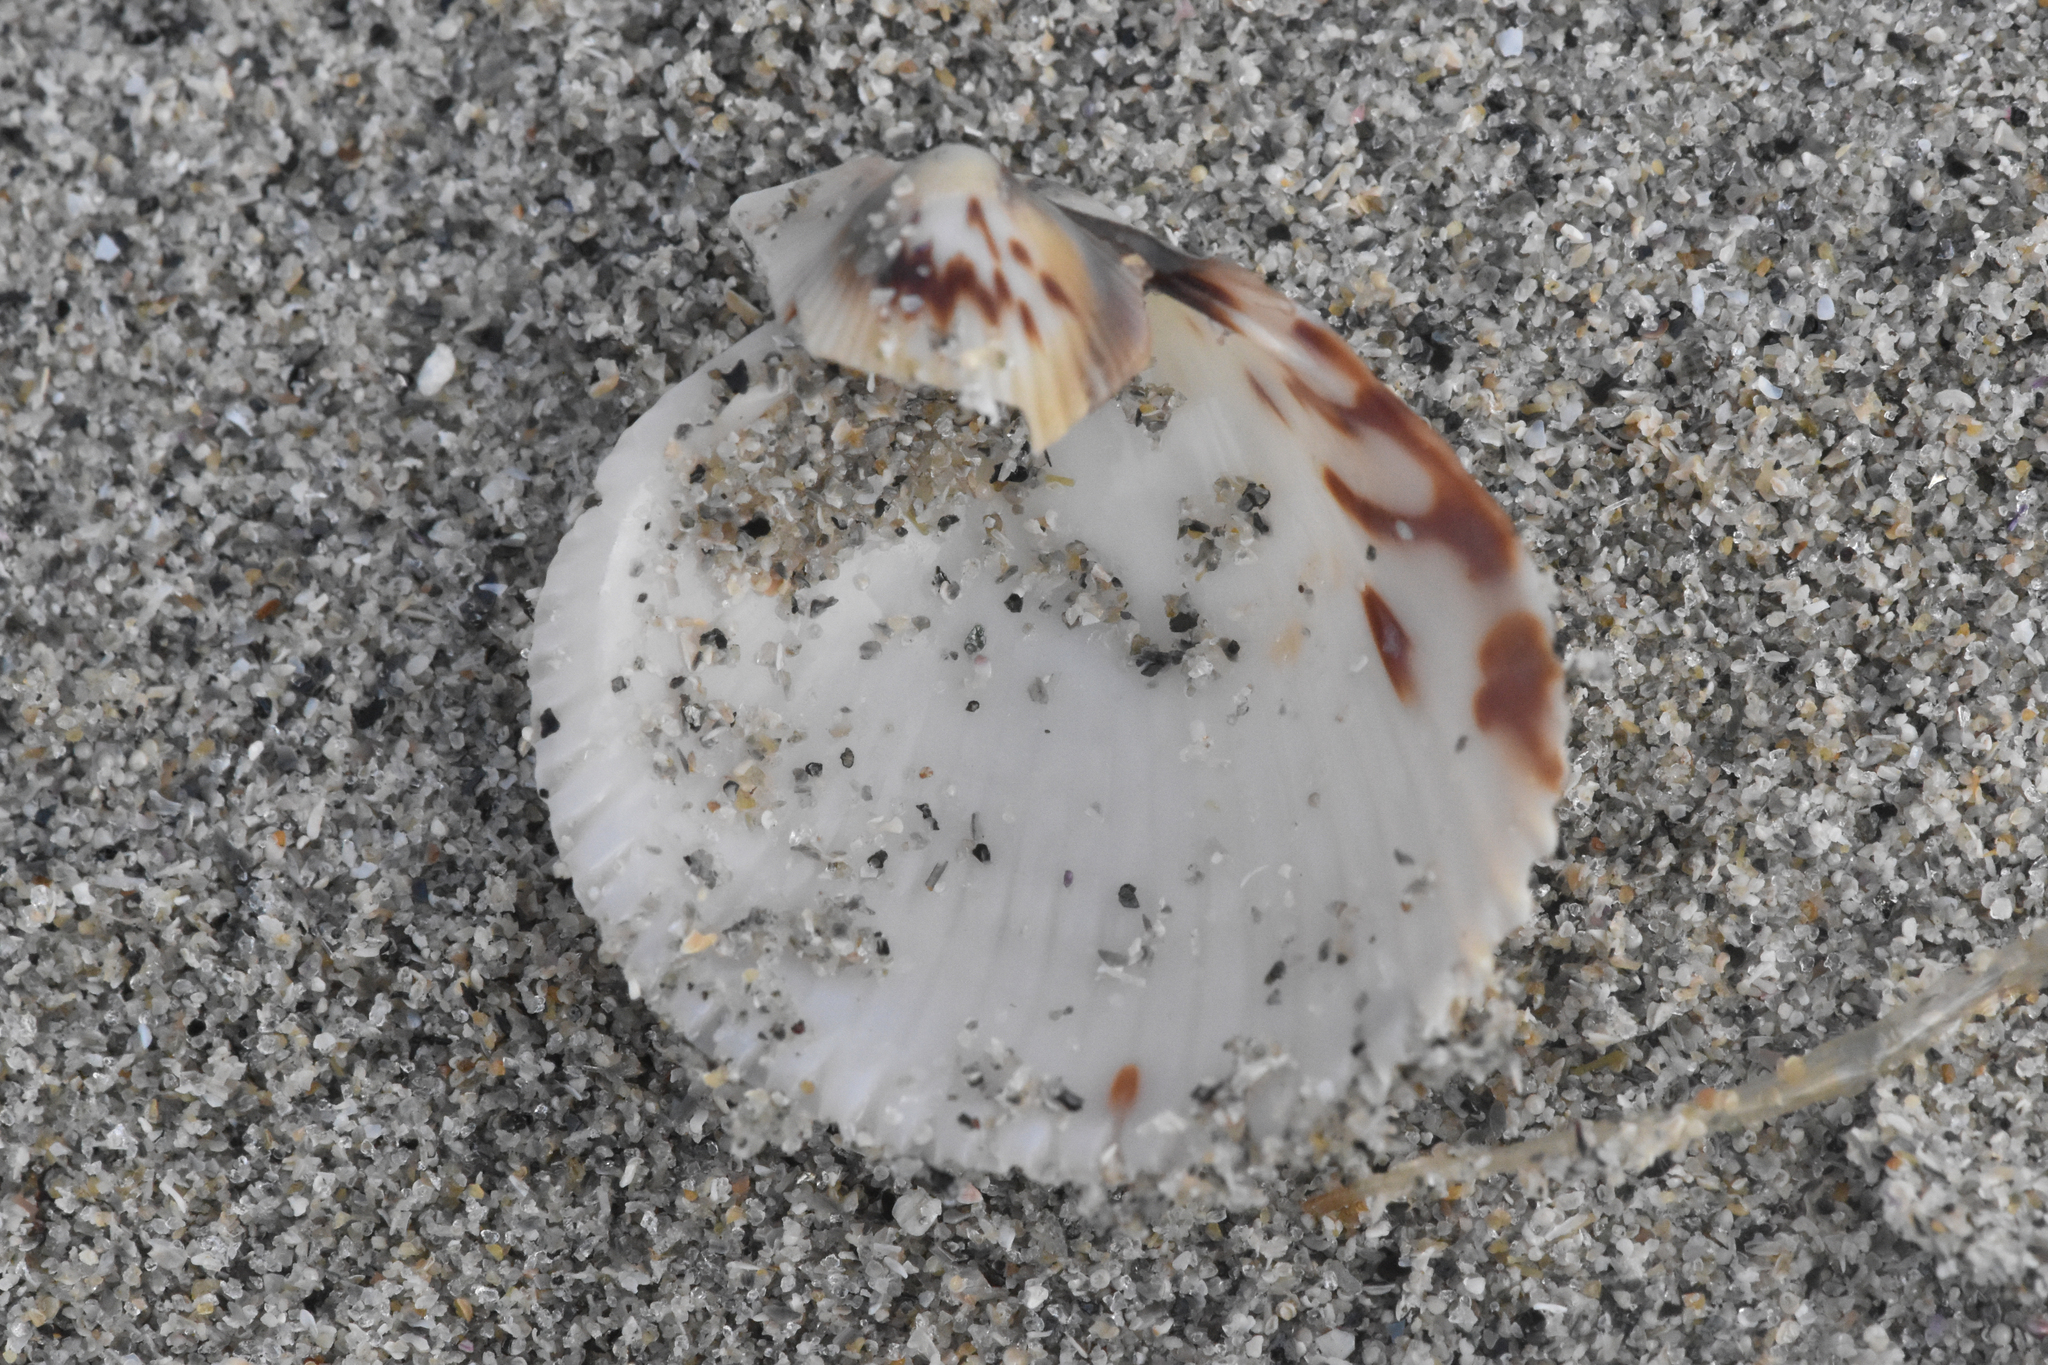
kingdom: Animalia
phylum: Mollusca
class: Bivalvia
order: Cardiida
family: Cardiidae
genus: Clinocardium
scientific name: Clinocardium nuttallii
